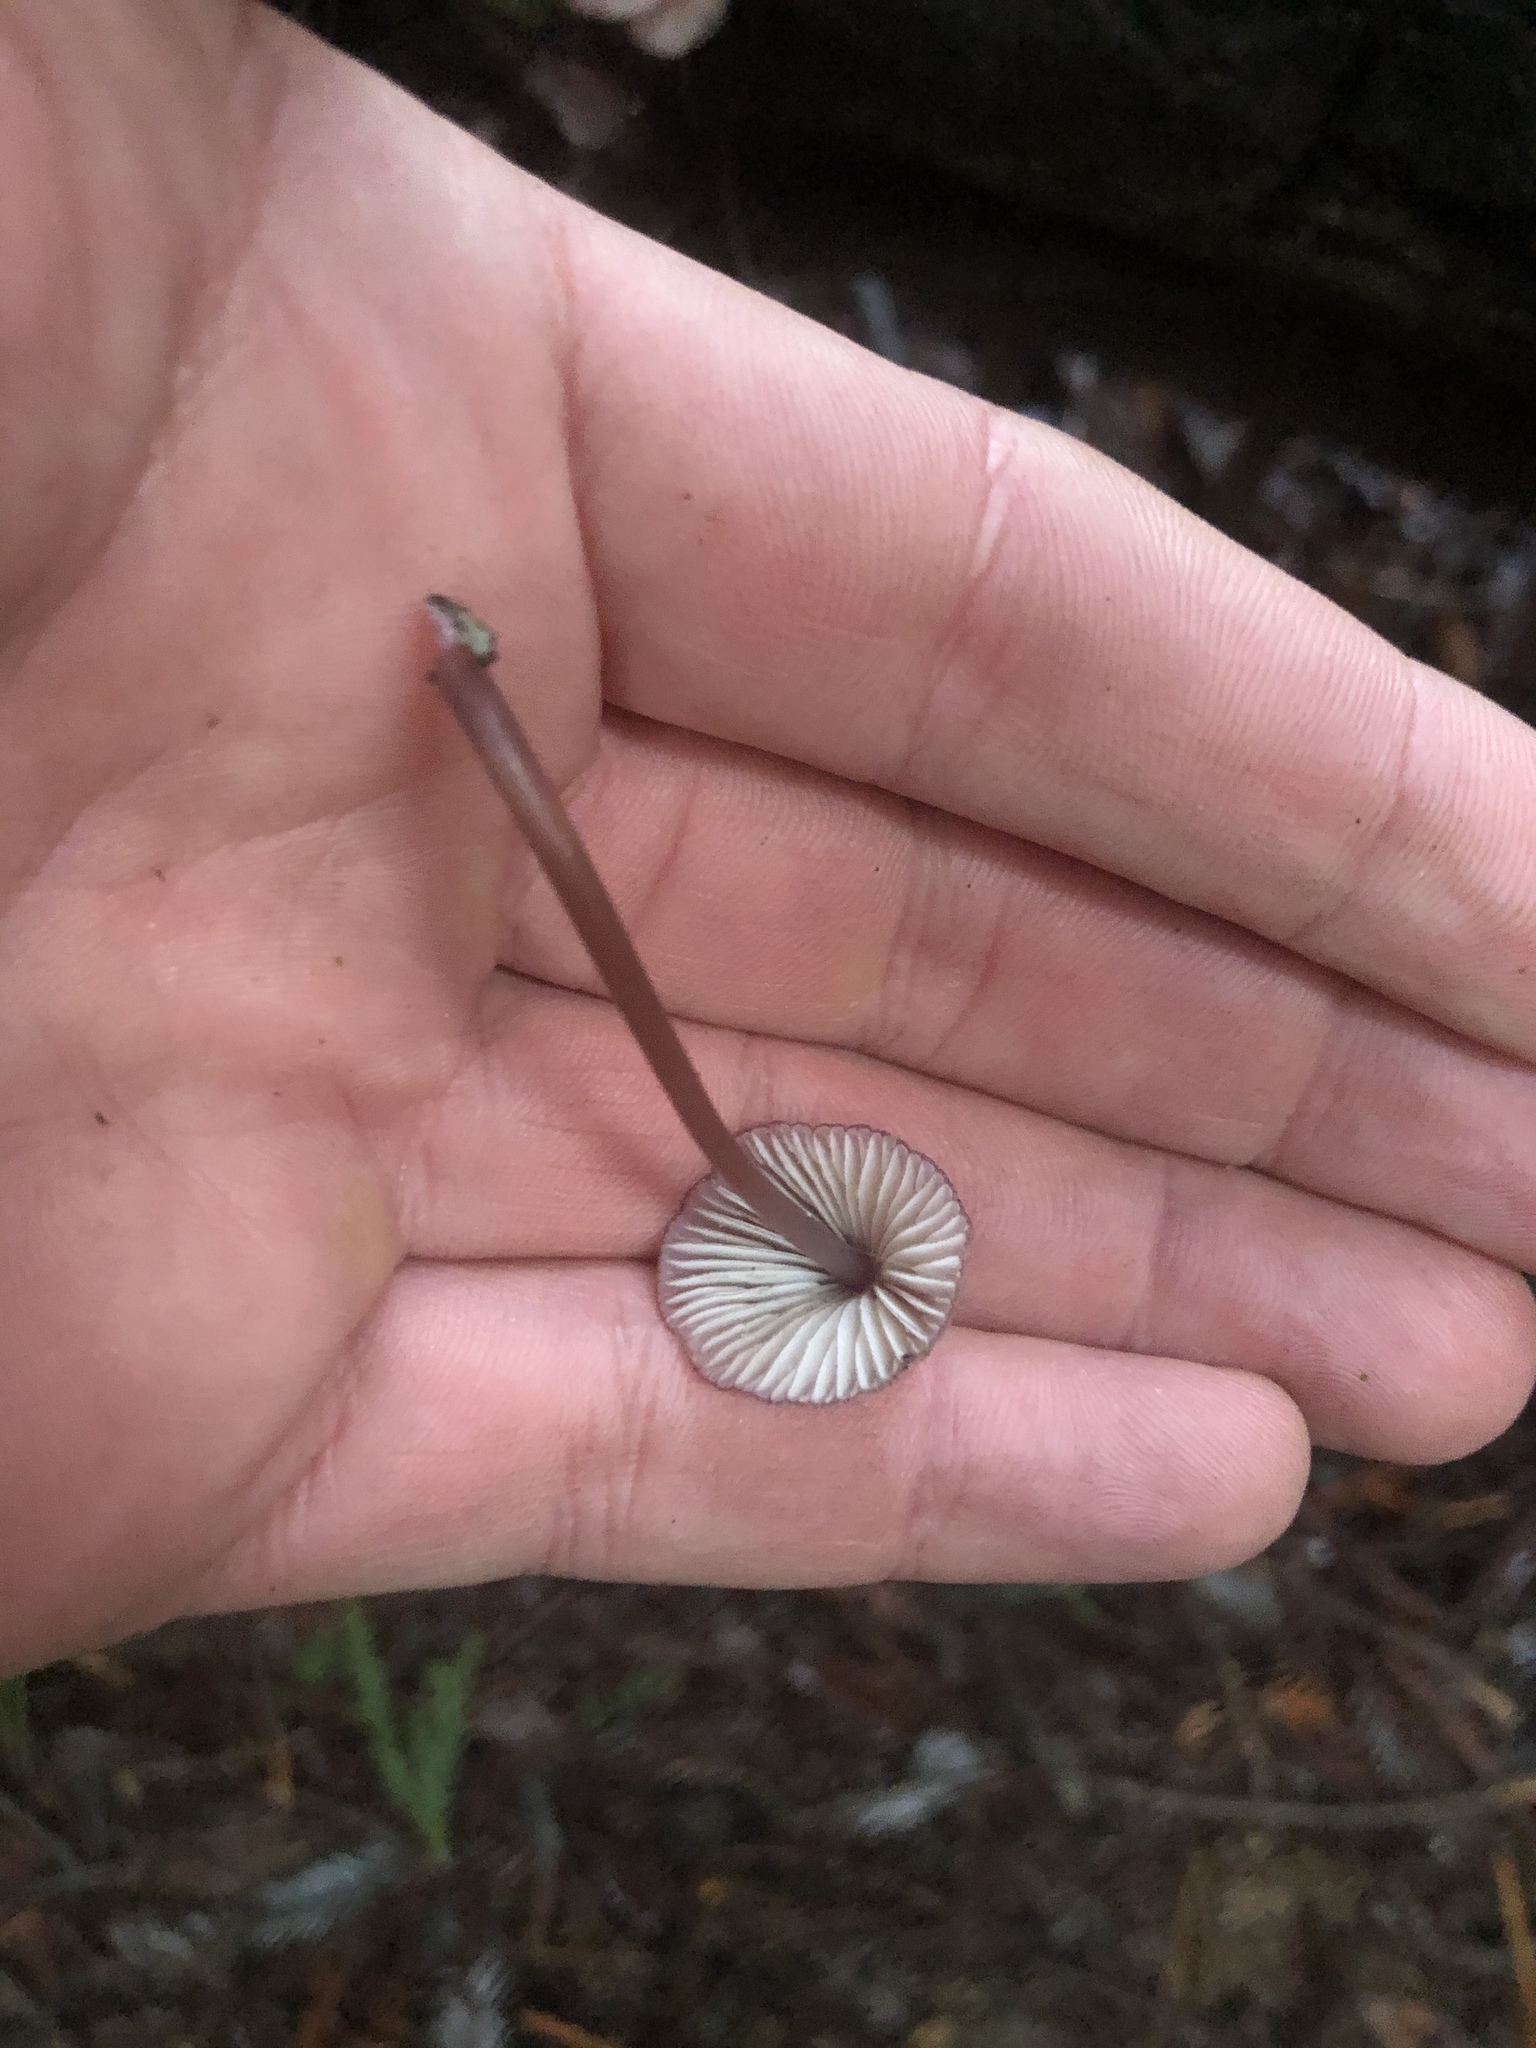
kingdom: Fungi
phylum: Basidiomycota
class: Agaricomycetes
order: Agaricales
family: Mycenaceae
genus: Mycena
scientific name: Mycena purpureofusca
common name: Purple edge bonnet
